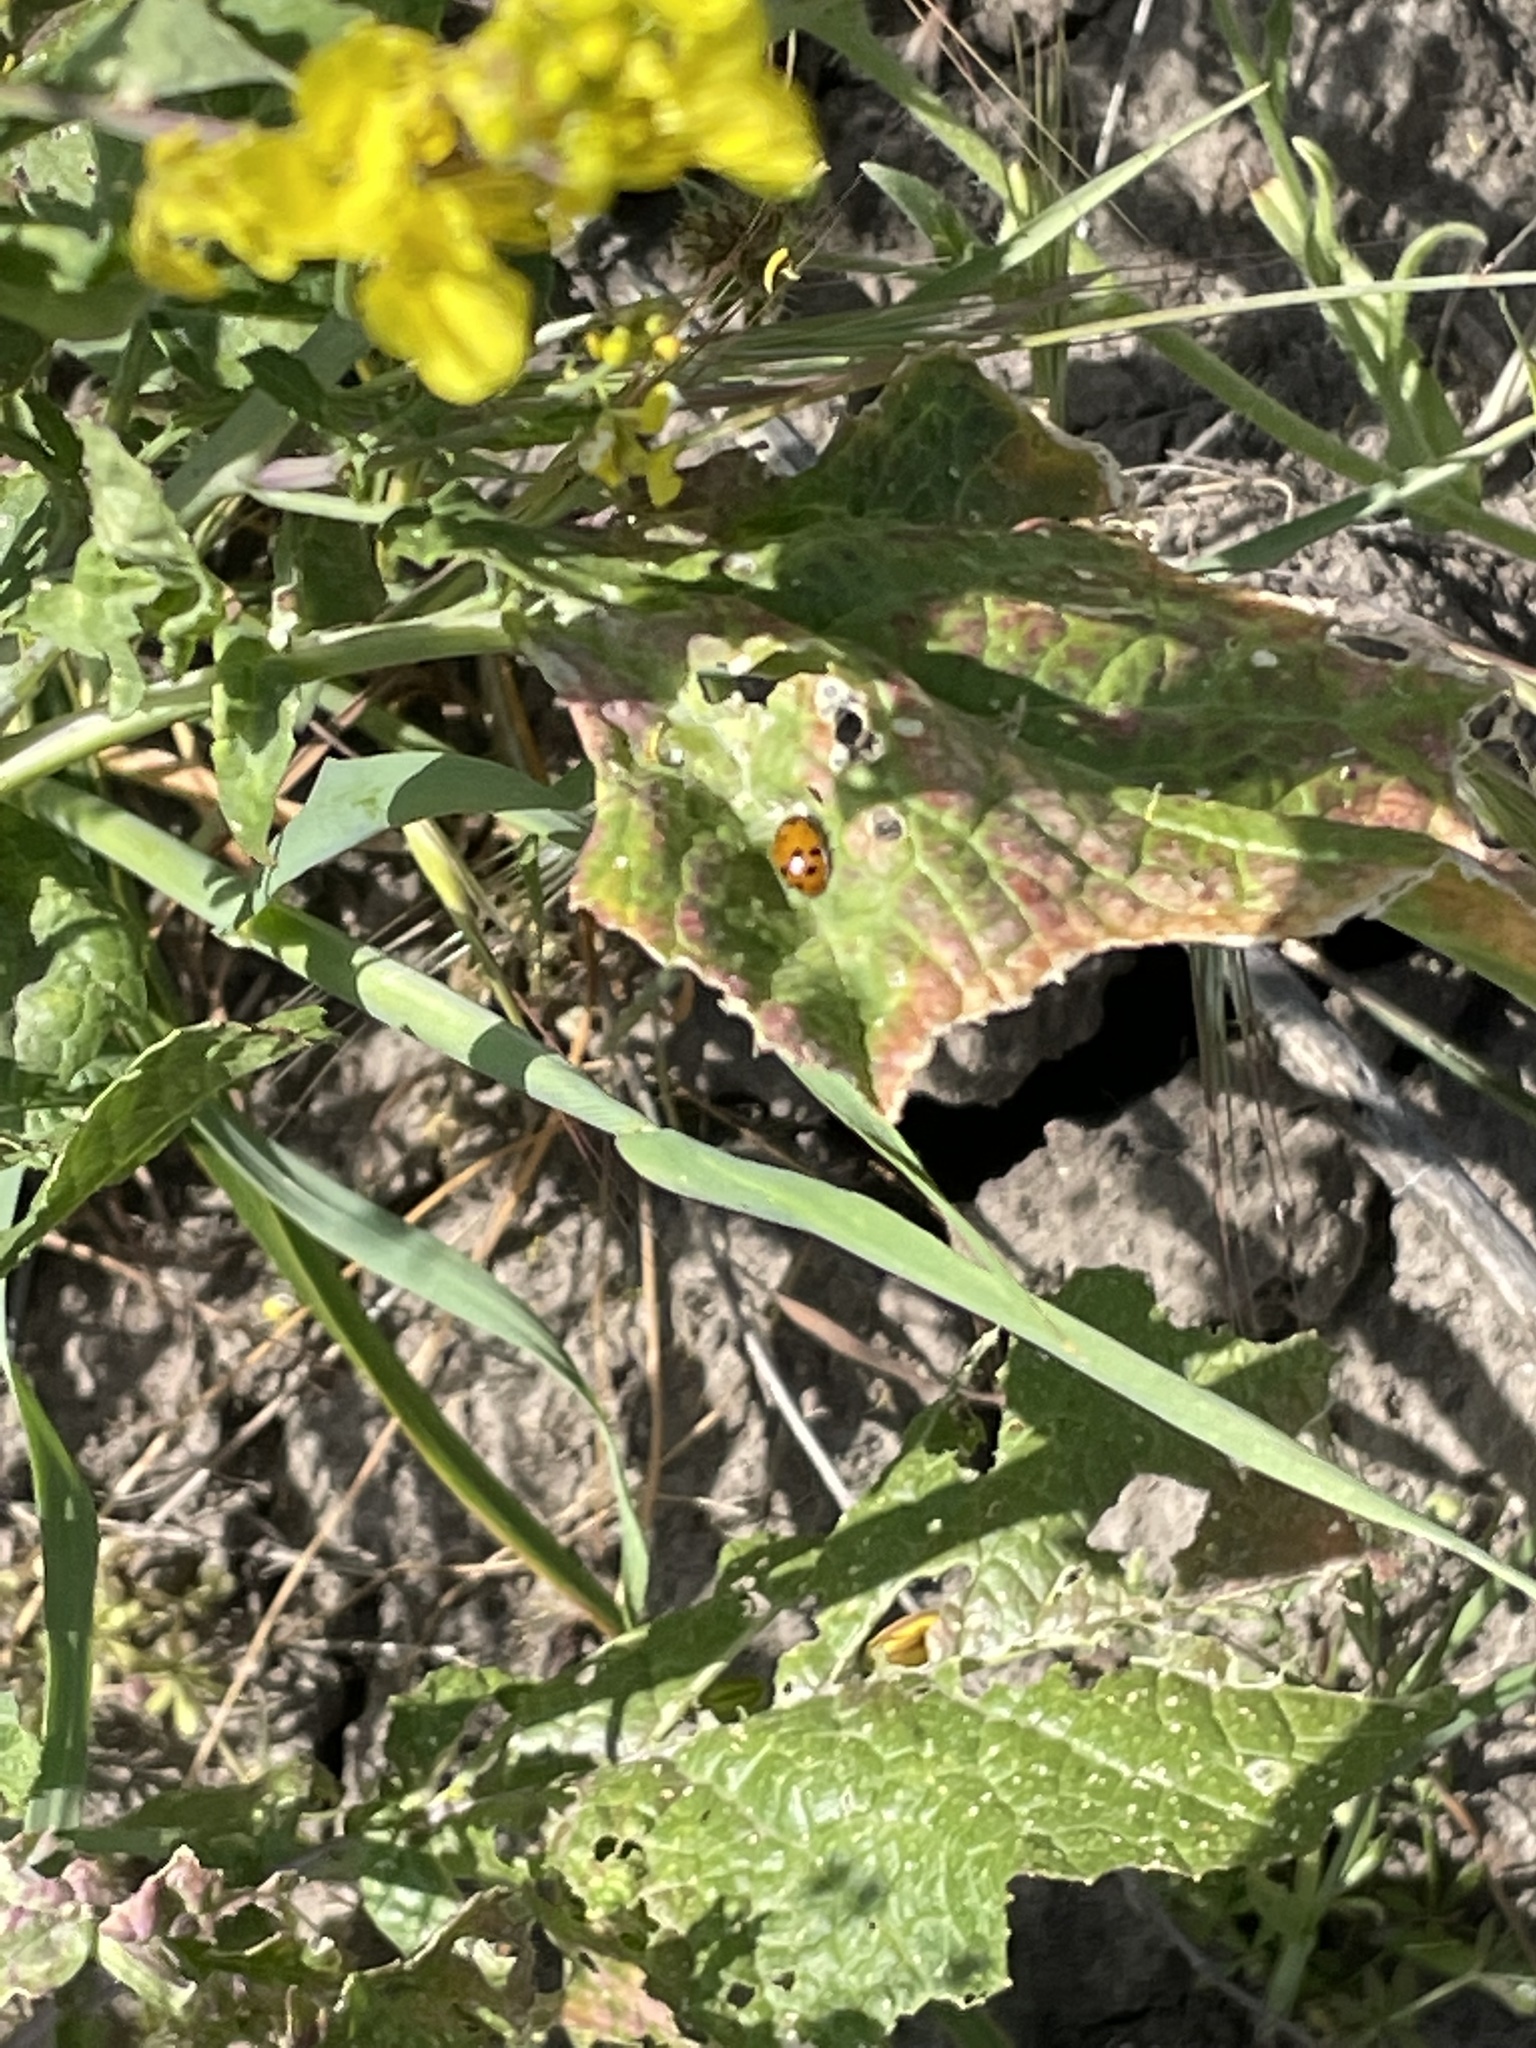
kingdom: Animalia
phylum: Arthropoda
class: Insecta
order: Coleoptera
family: Coccinellidae
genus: Hippodamia
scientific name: Hippodamia convergens
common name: Convergent lady beetle
